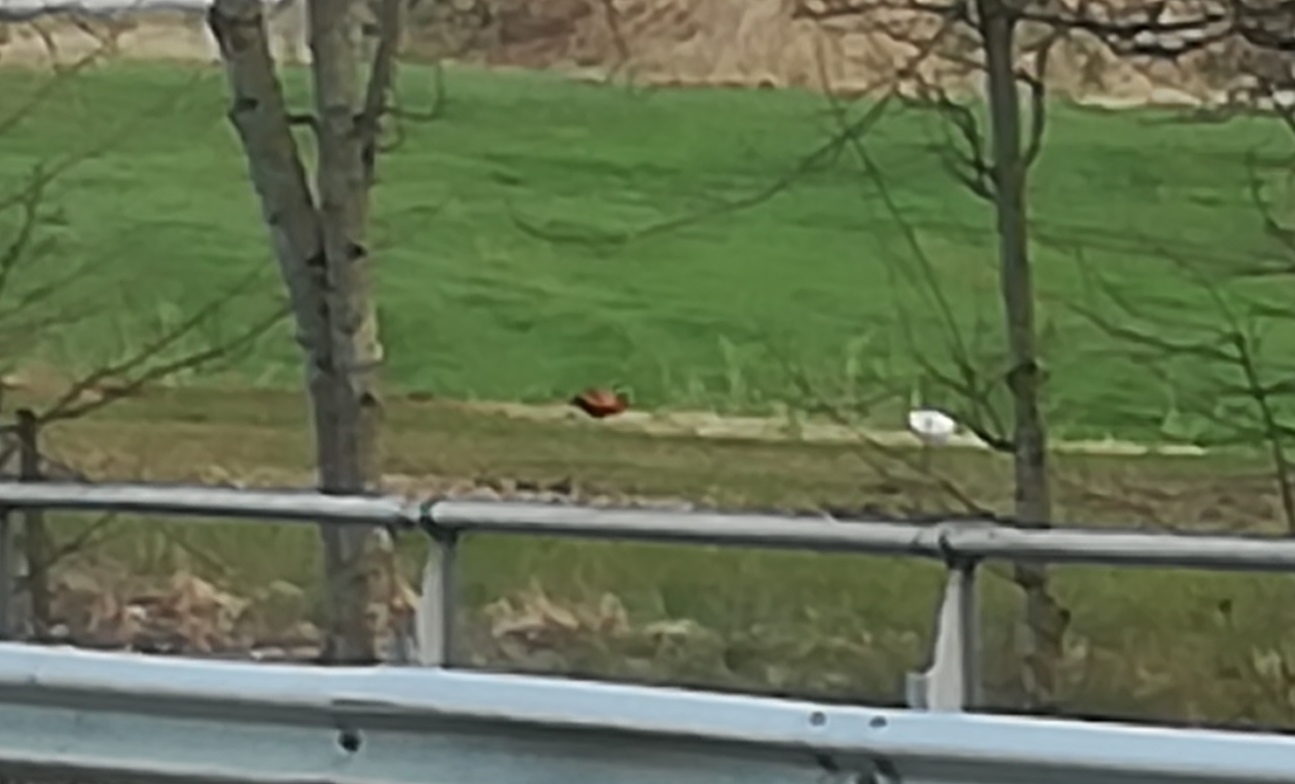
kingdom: Animalia
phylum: Chordata
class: Aves
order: Galliformes
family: Phasianidae
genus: Phasianus
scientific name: Phasianus colchicus
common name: Common pheasant
